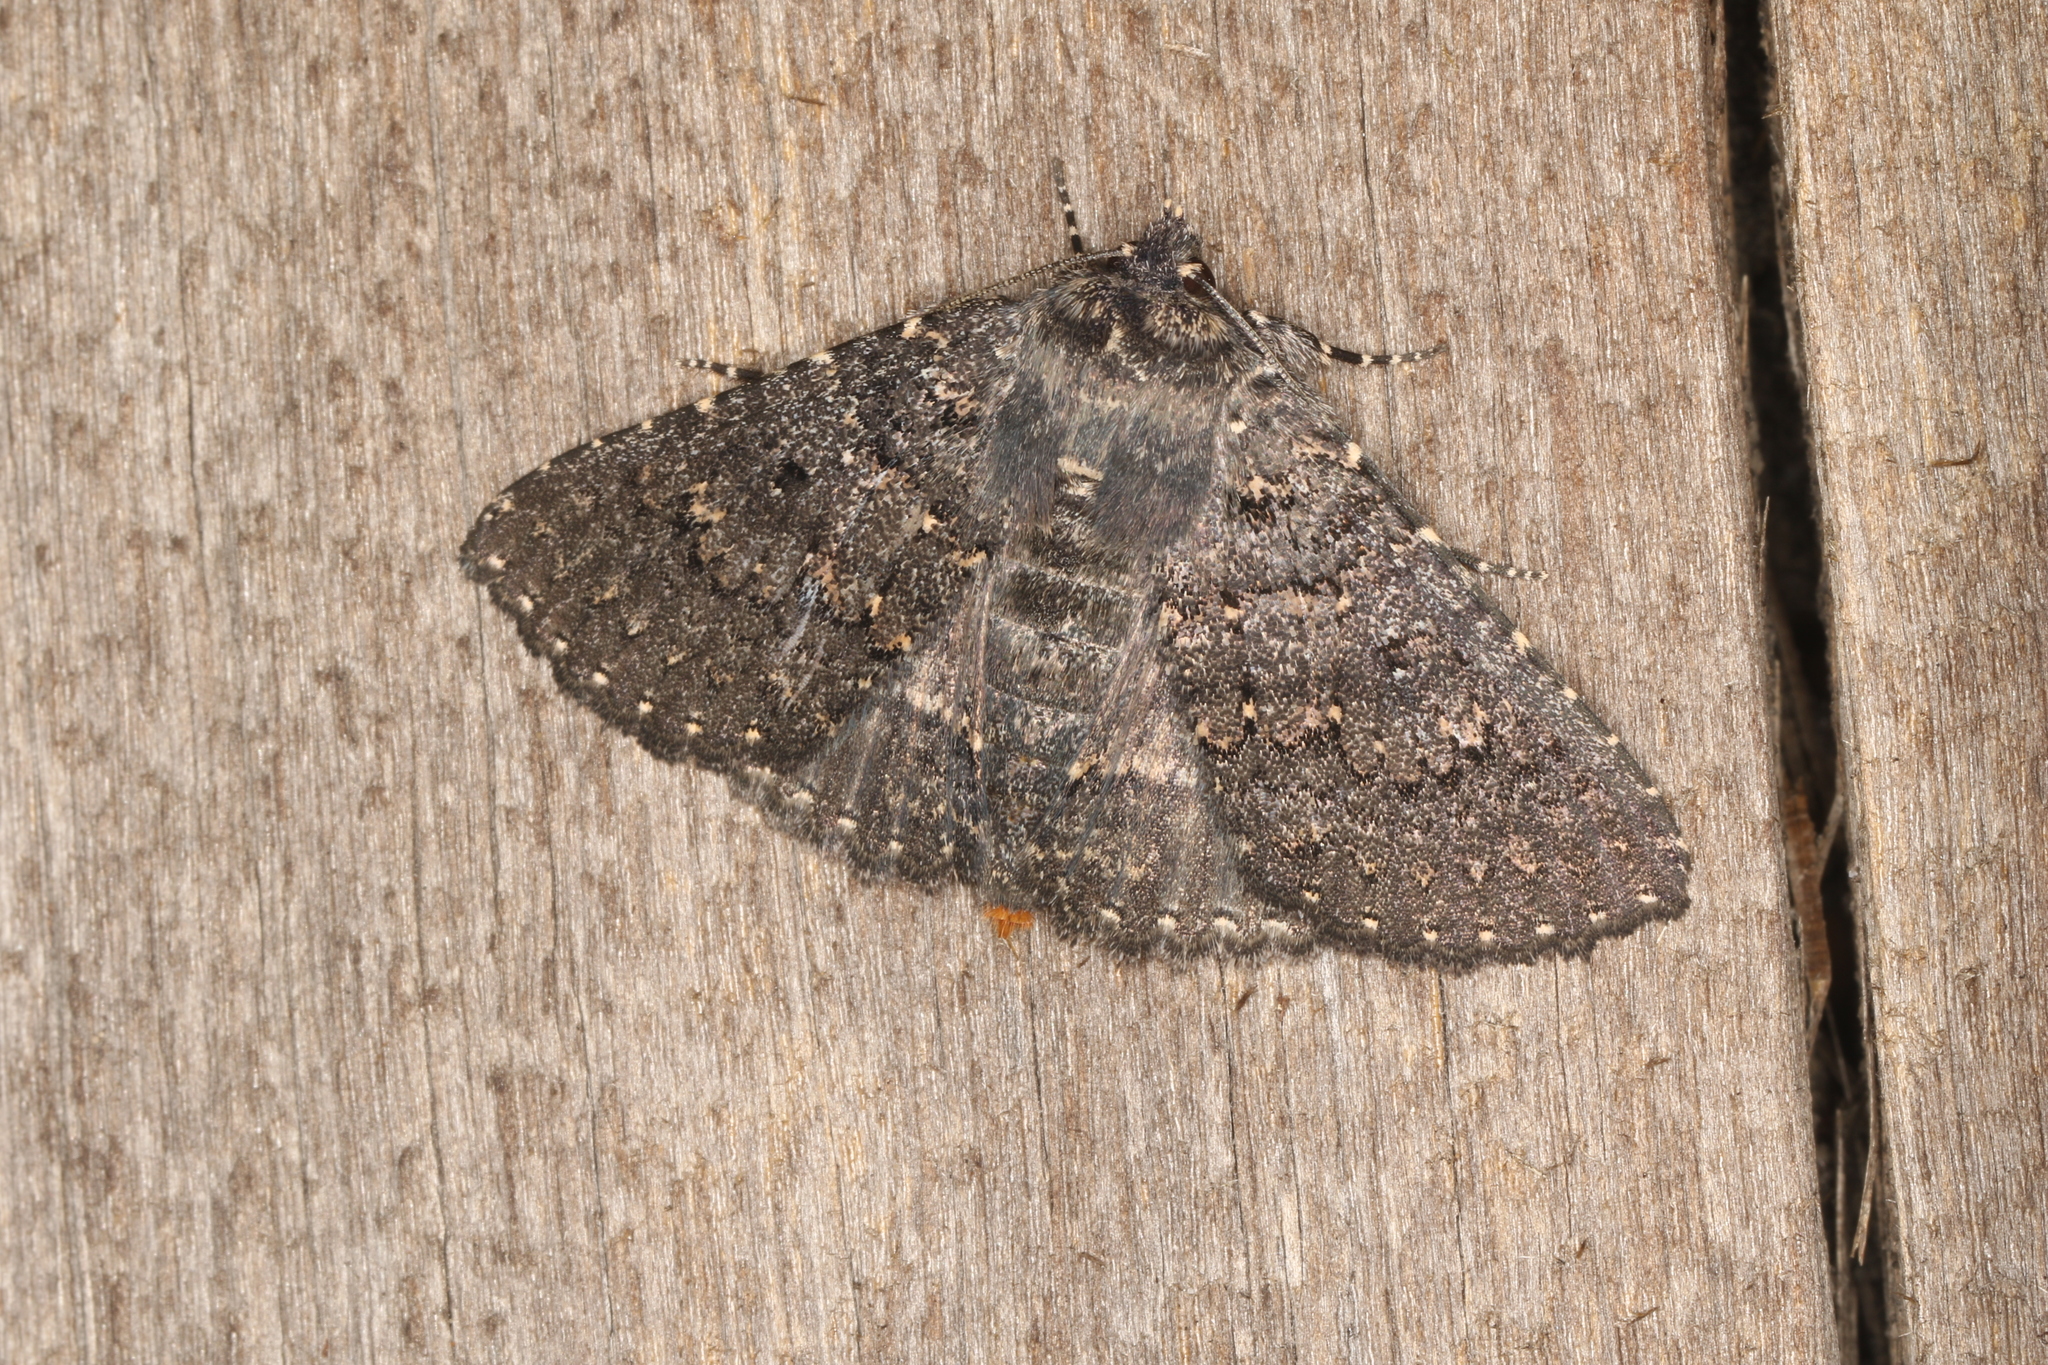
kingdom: Animalia
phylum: Arthropoda
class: Insecta
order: Lepidoptera
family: Erebidae
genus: Praxis
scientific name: Praxis edwardsii
